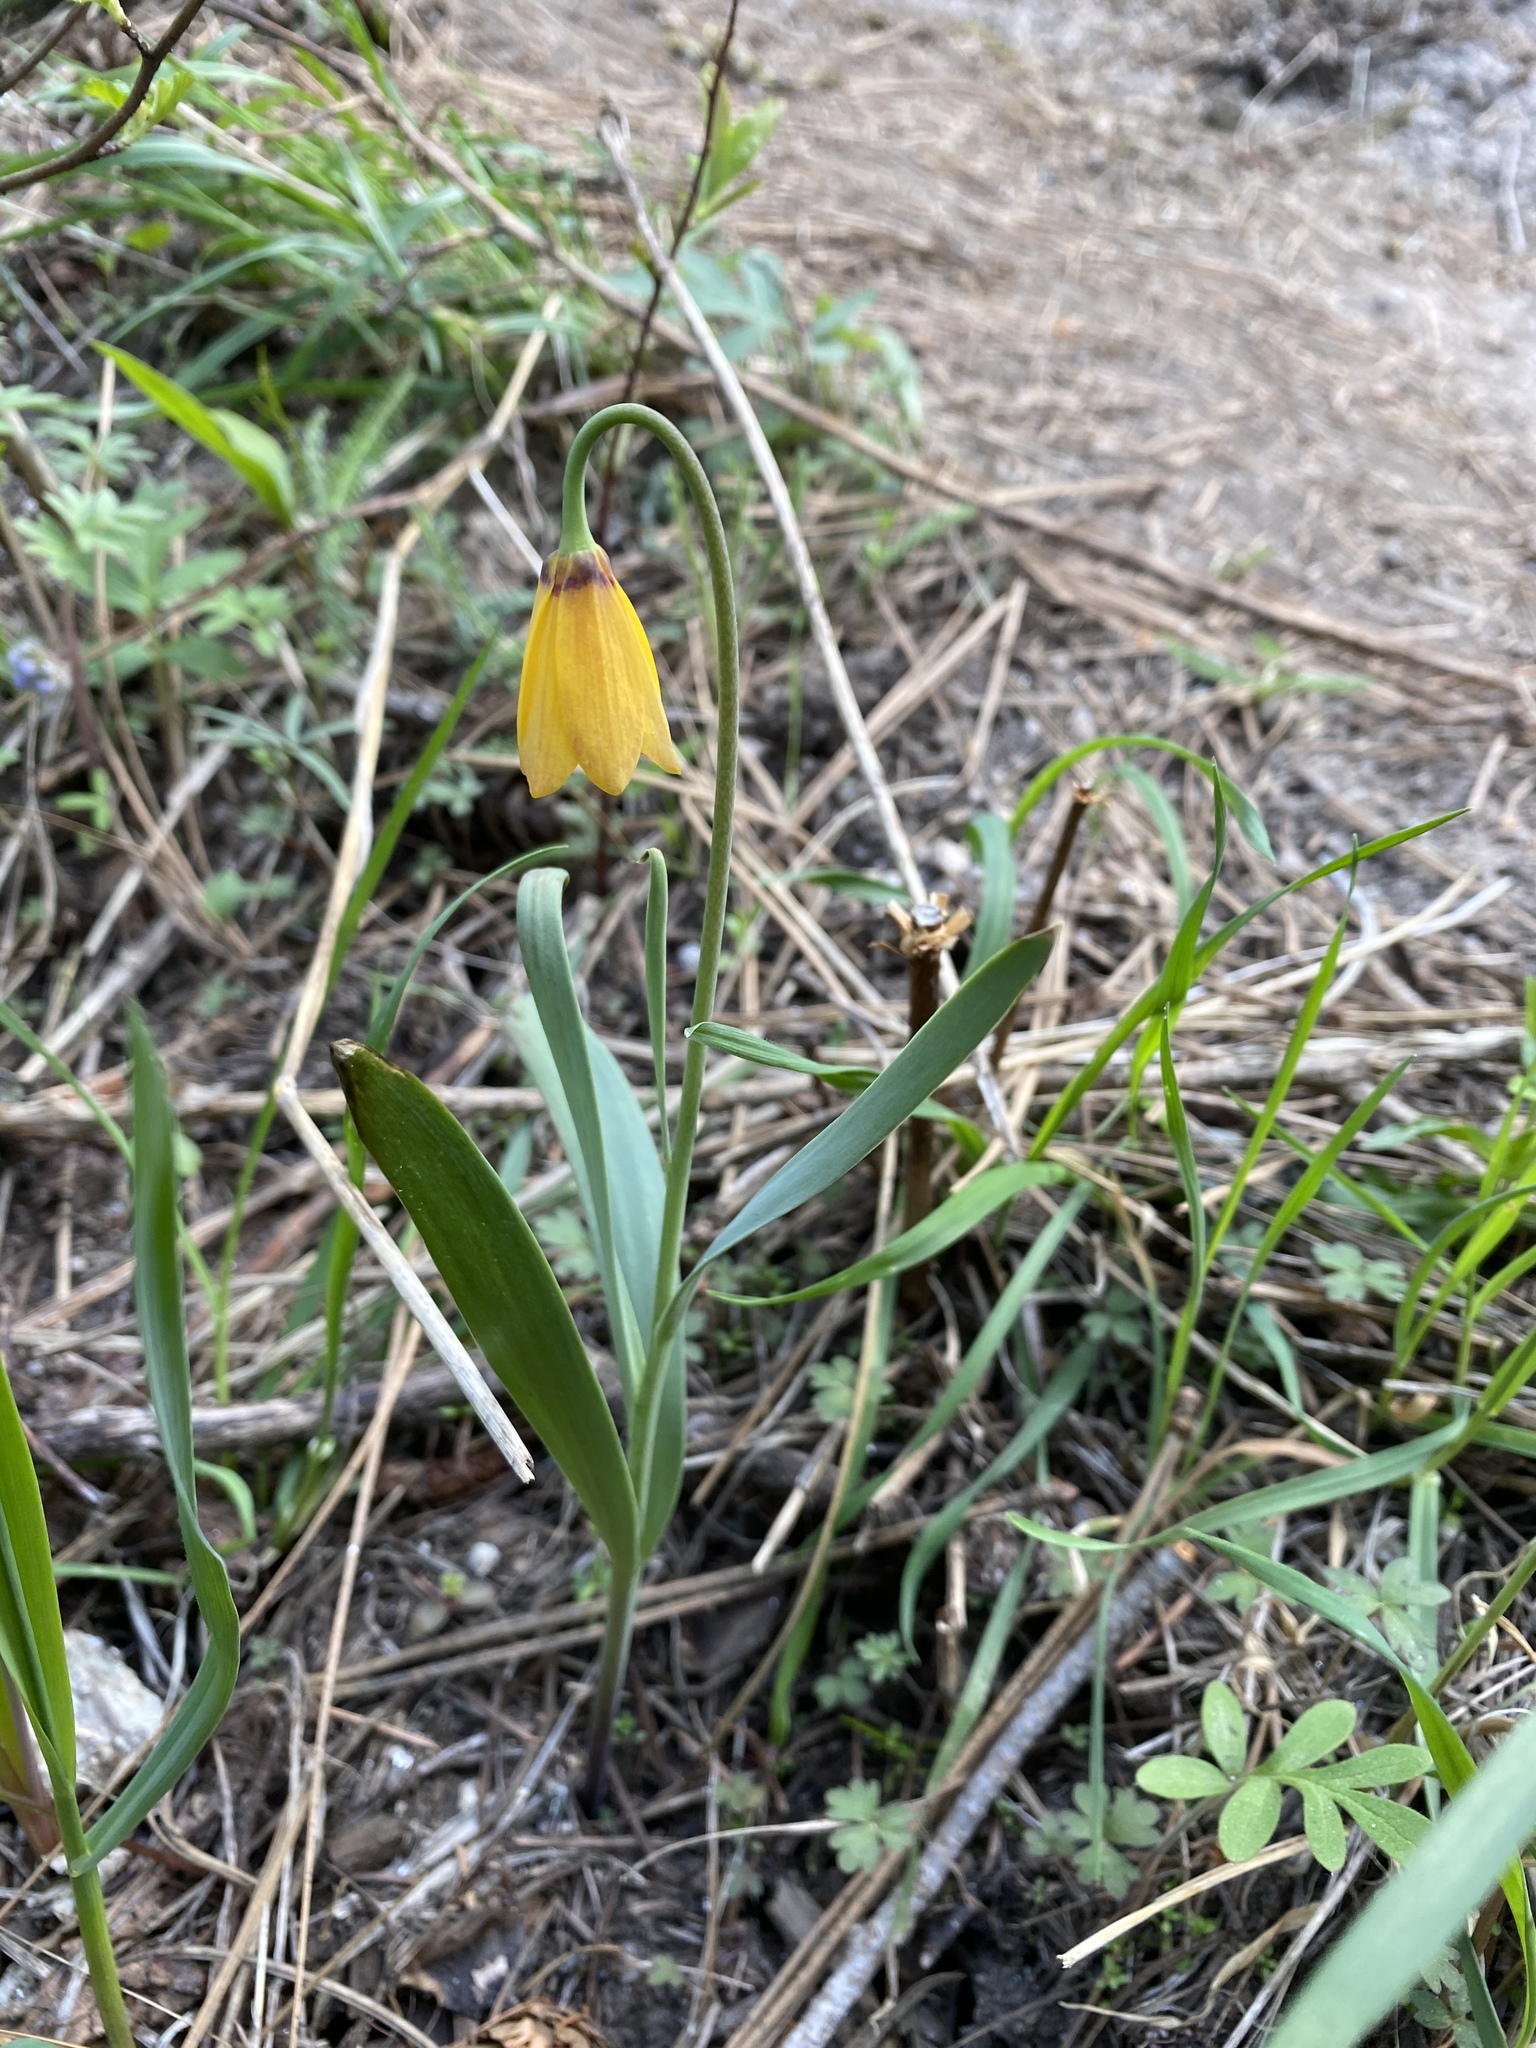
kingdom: Plantae
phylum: Tracheophyta
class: Liliopsida
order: Liliales
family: Liliaceae
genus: Fritillaria
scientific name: Fritillaria pudica
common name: Yellow fritillary
